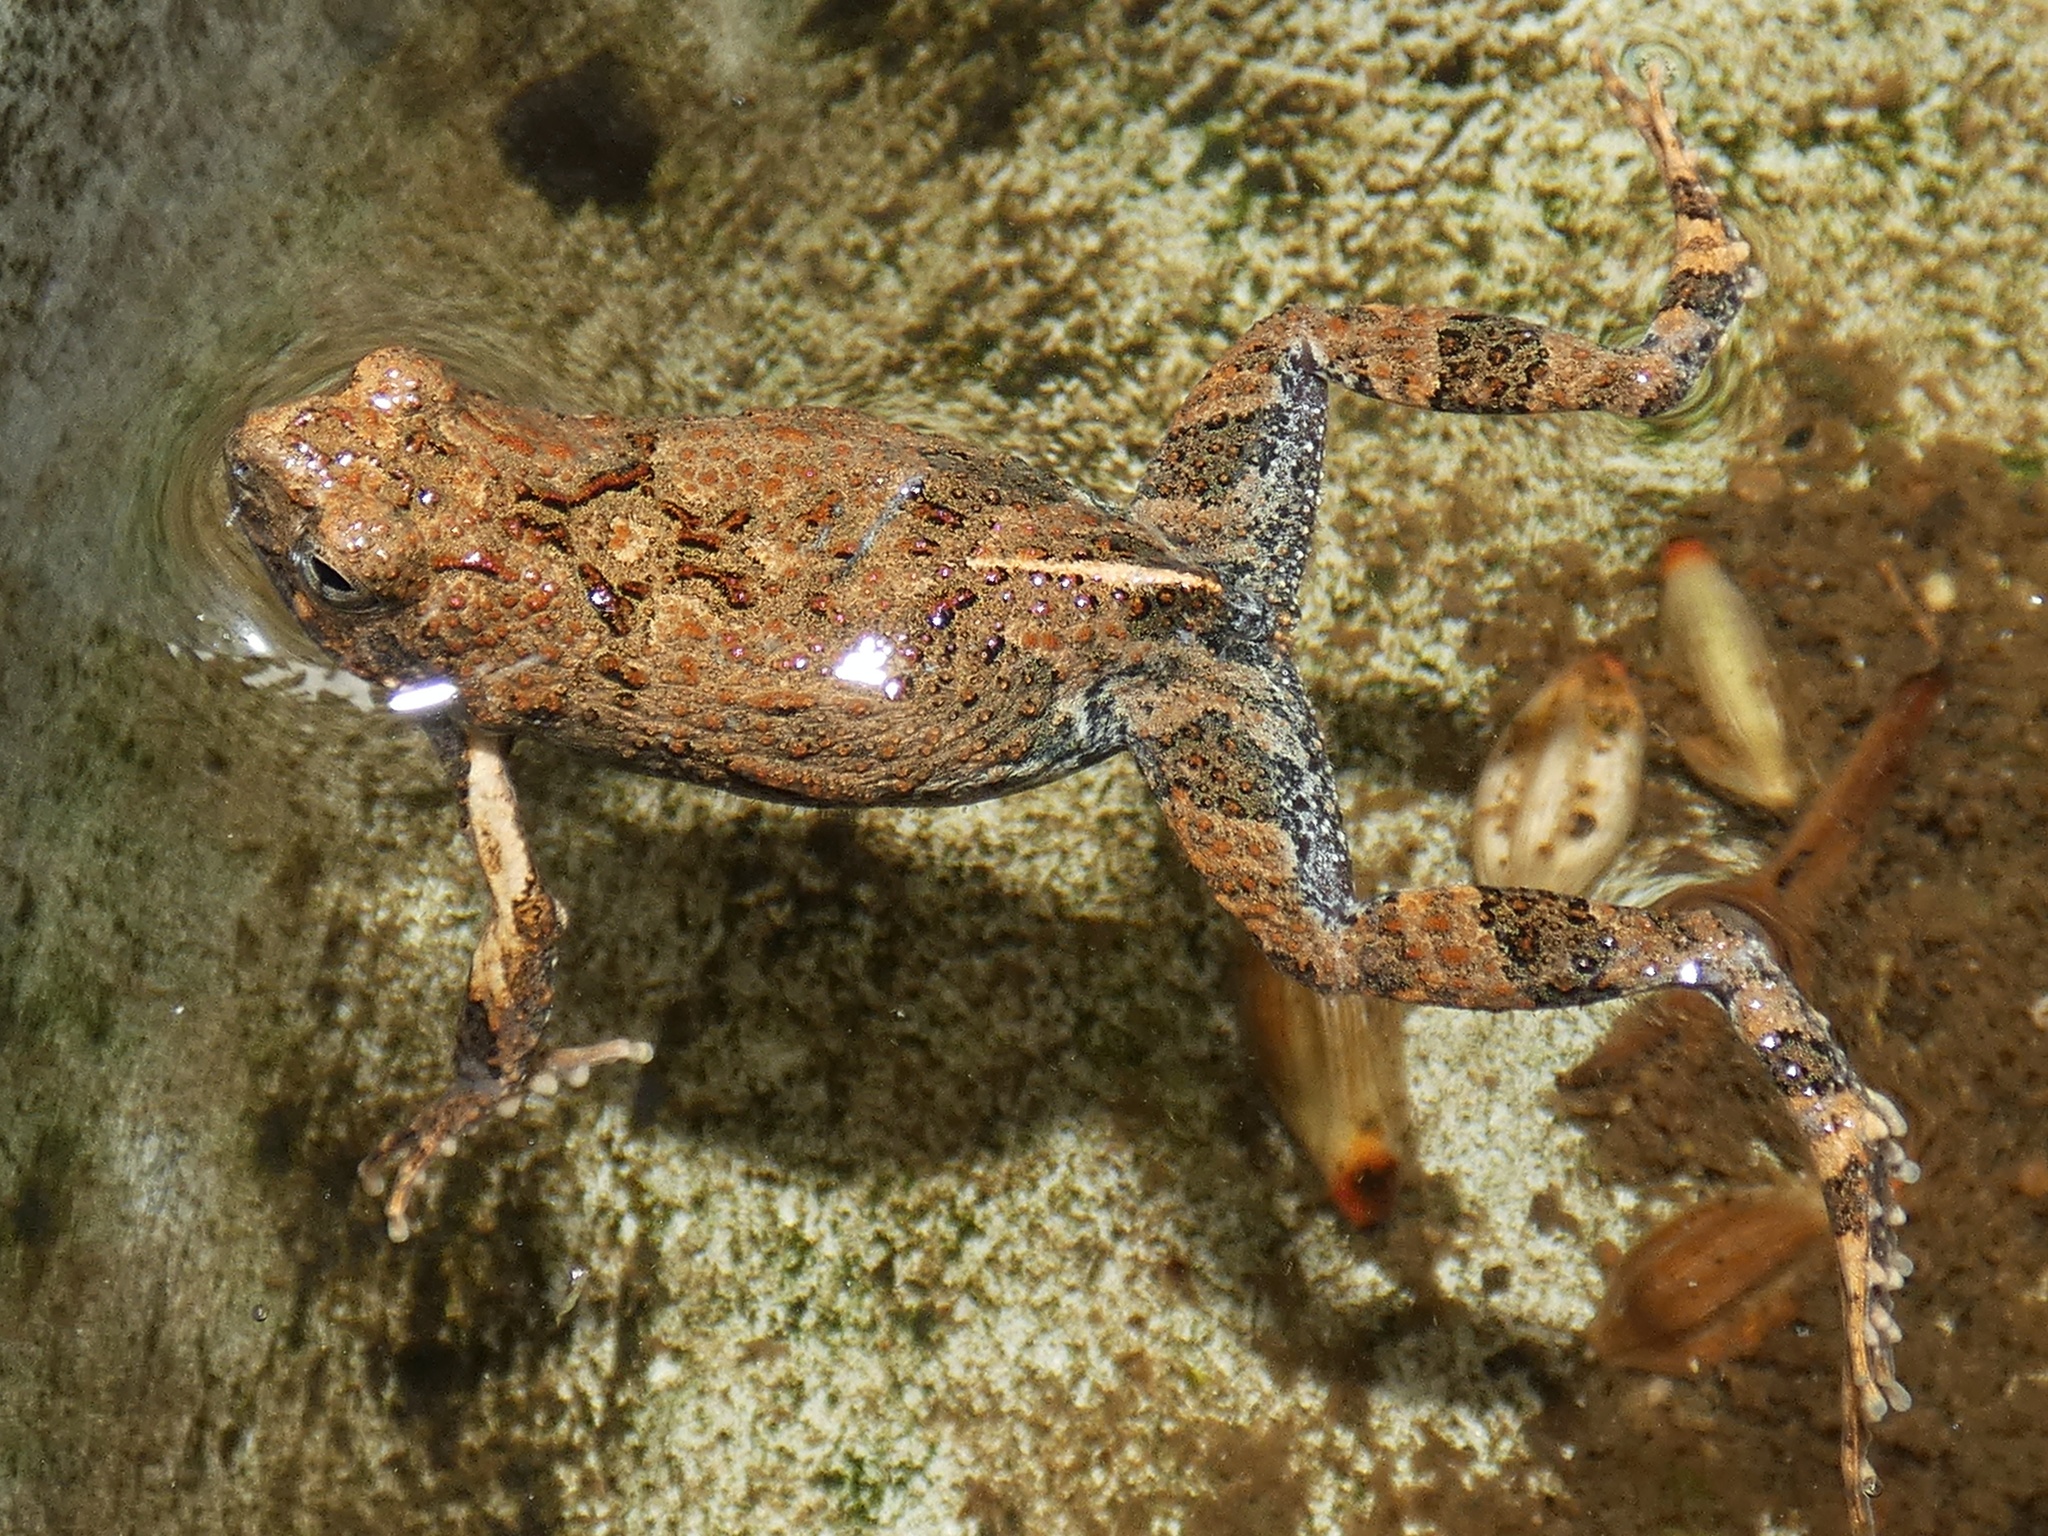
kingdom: Animalia
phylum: Chordata
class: Amphibia
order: Anura
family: Leptodactylidae
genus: Engystomops
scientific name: Engystomops pustulosus
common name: Tungara frog
